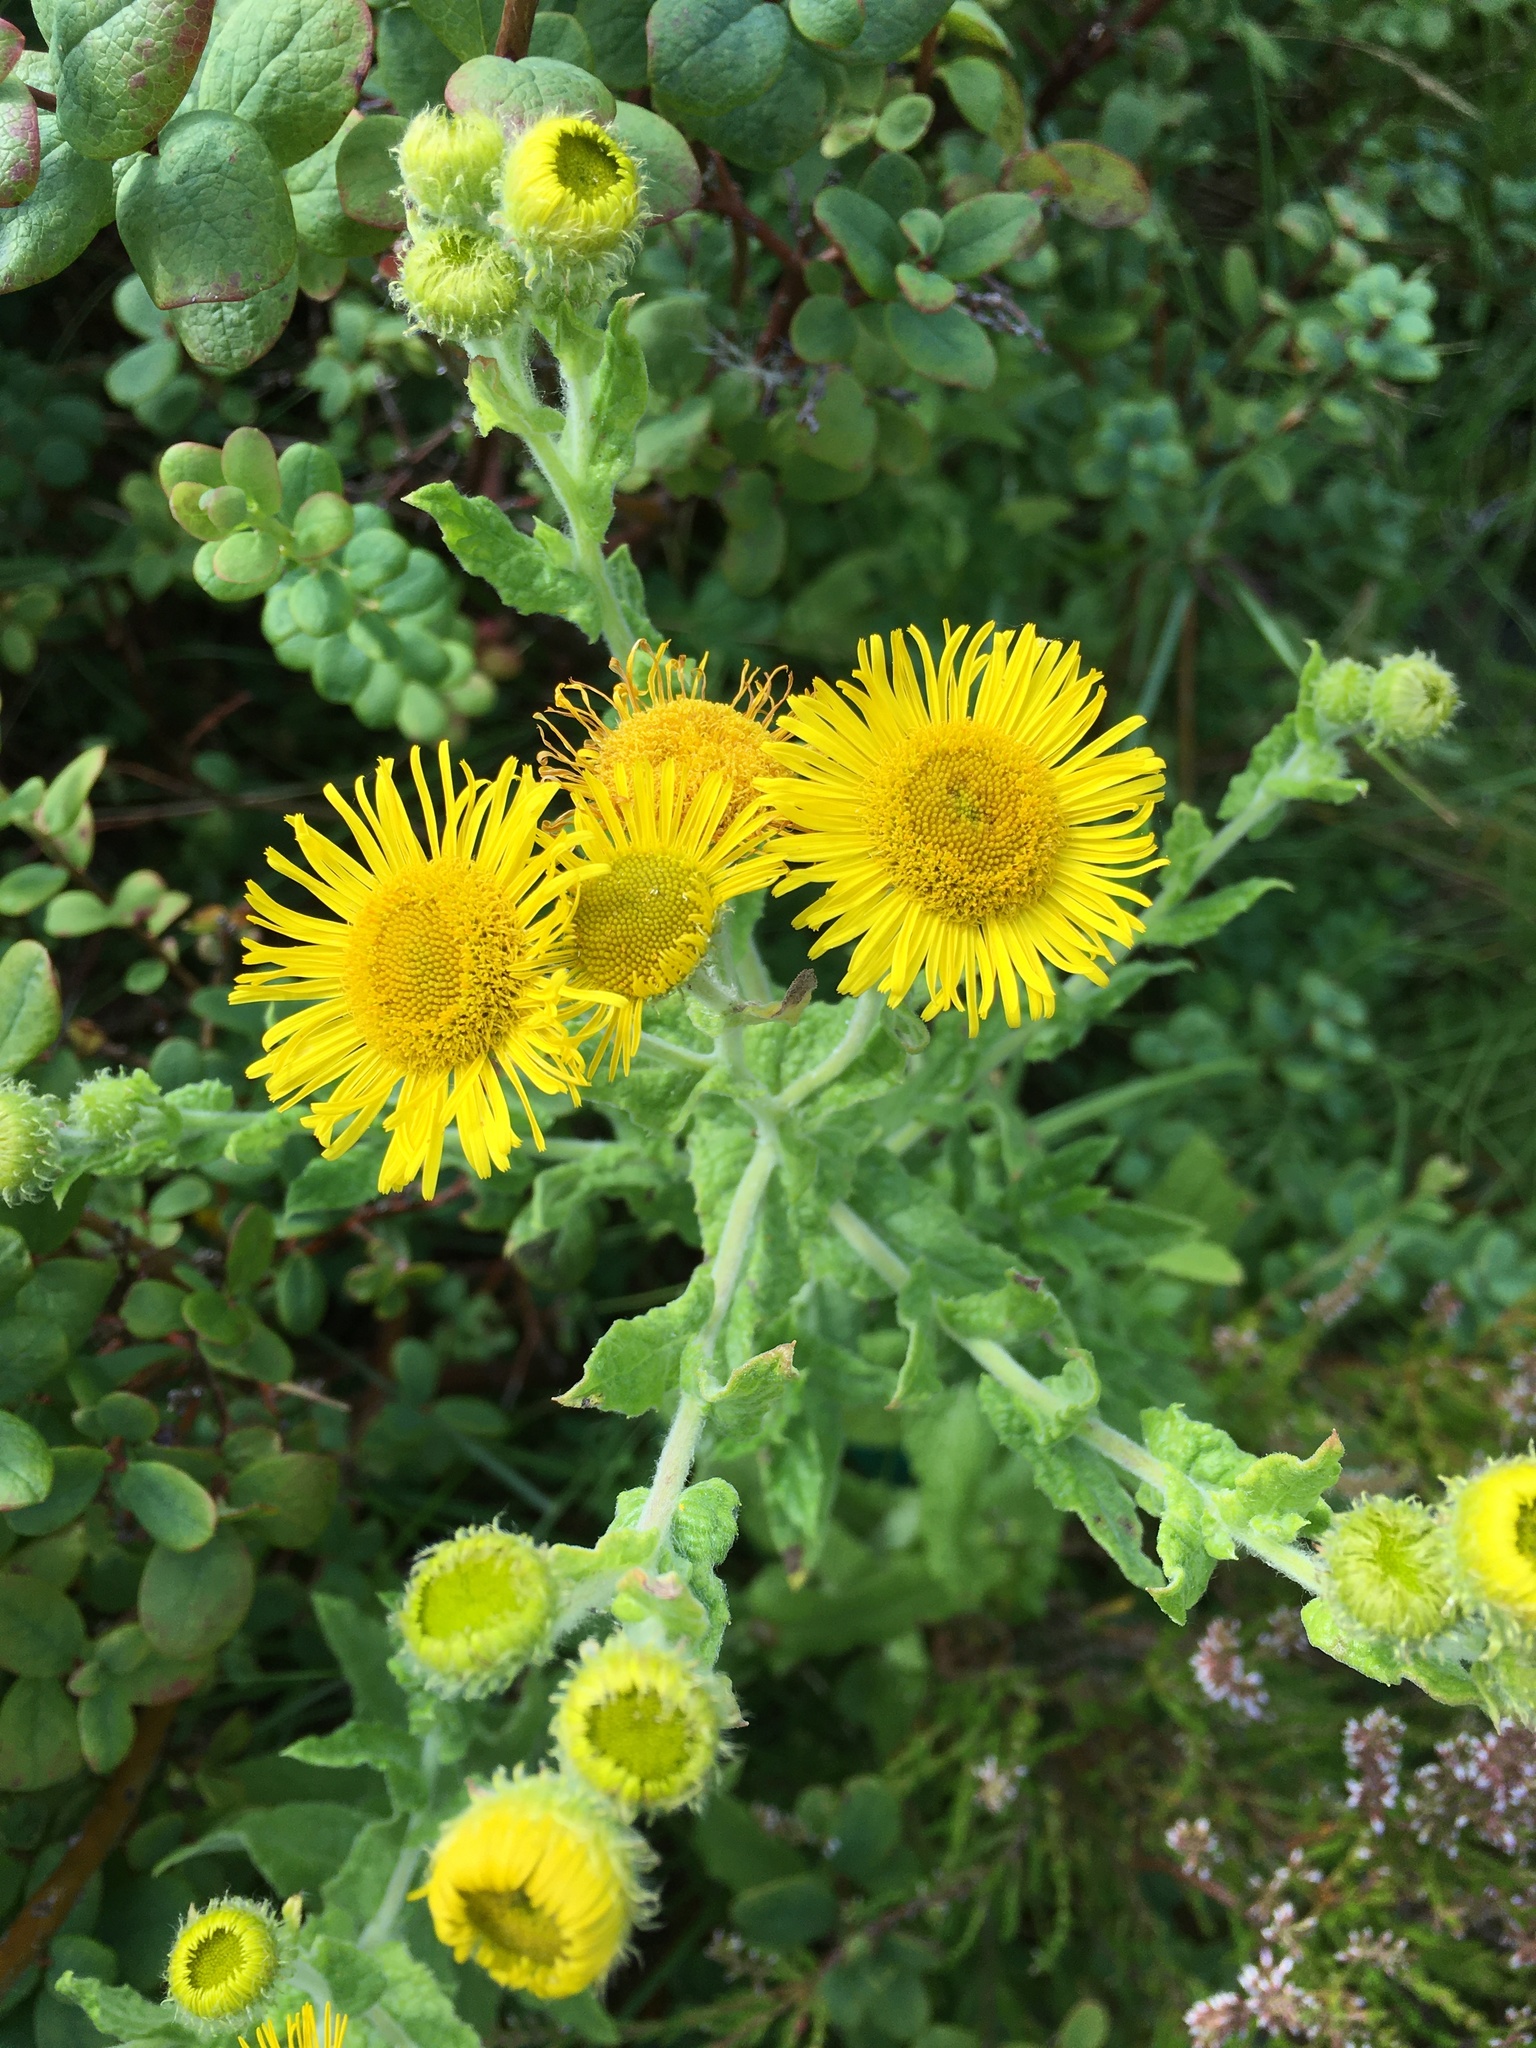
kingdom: Plantae
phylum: Tracheophyta
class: Magnoliopsida
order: Asterales
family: Asteraceae
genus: Pulicaria
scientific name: Pulicaria dysenterica
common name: Common fleabane
